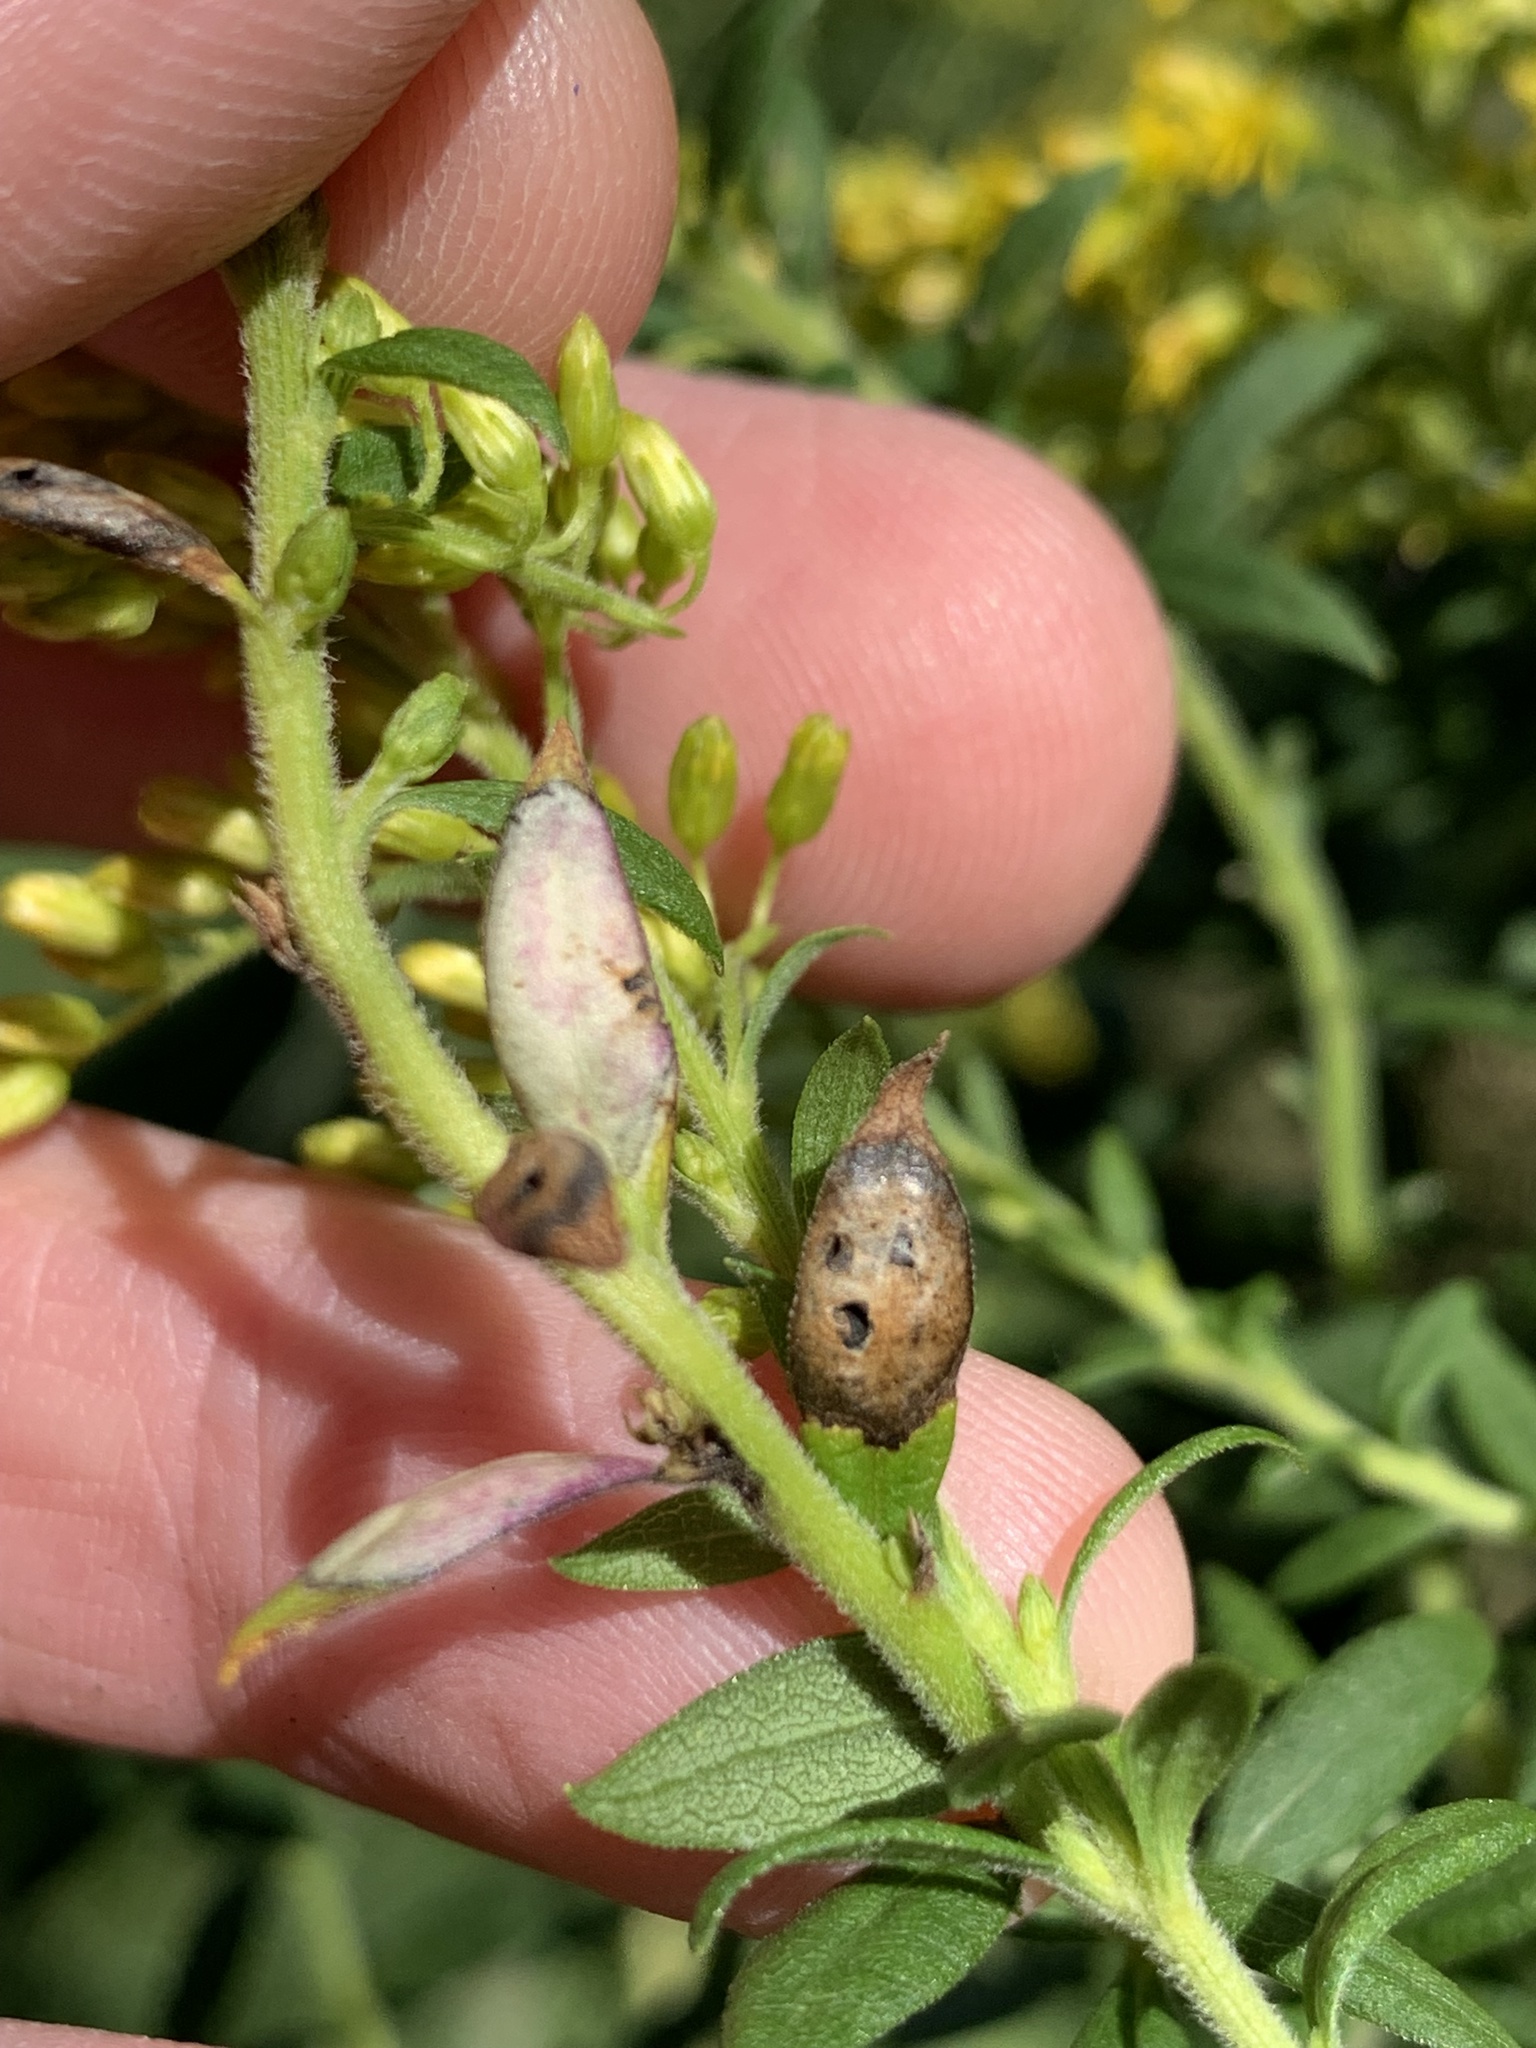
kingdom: Animalia
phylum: Arthropoda
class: Insecta
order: Diptera
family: Cecidomyiidae
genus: Asteromyia
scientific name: Asteromyia carbonifera
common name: Carbonifera goldenrod gall midge
